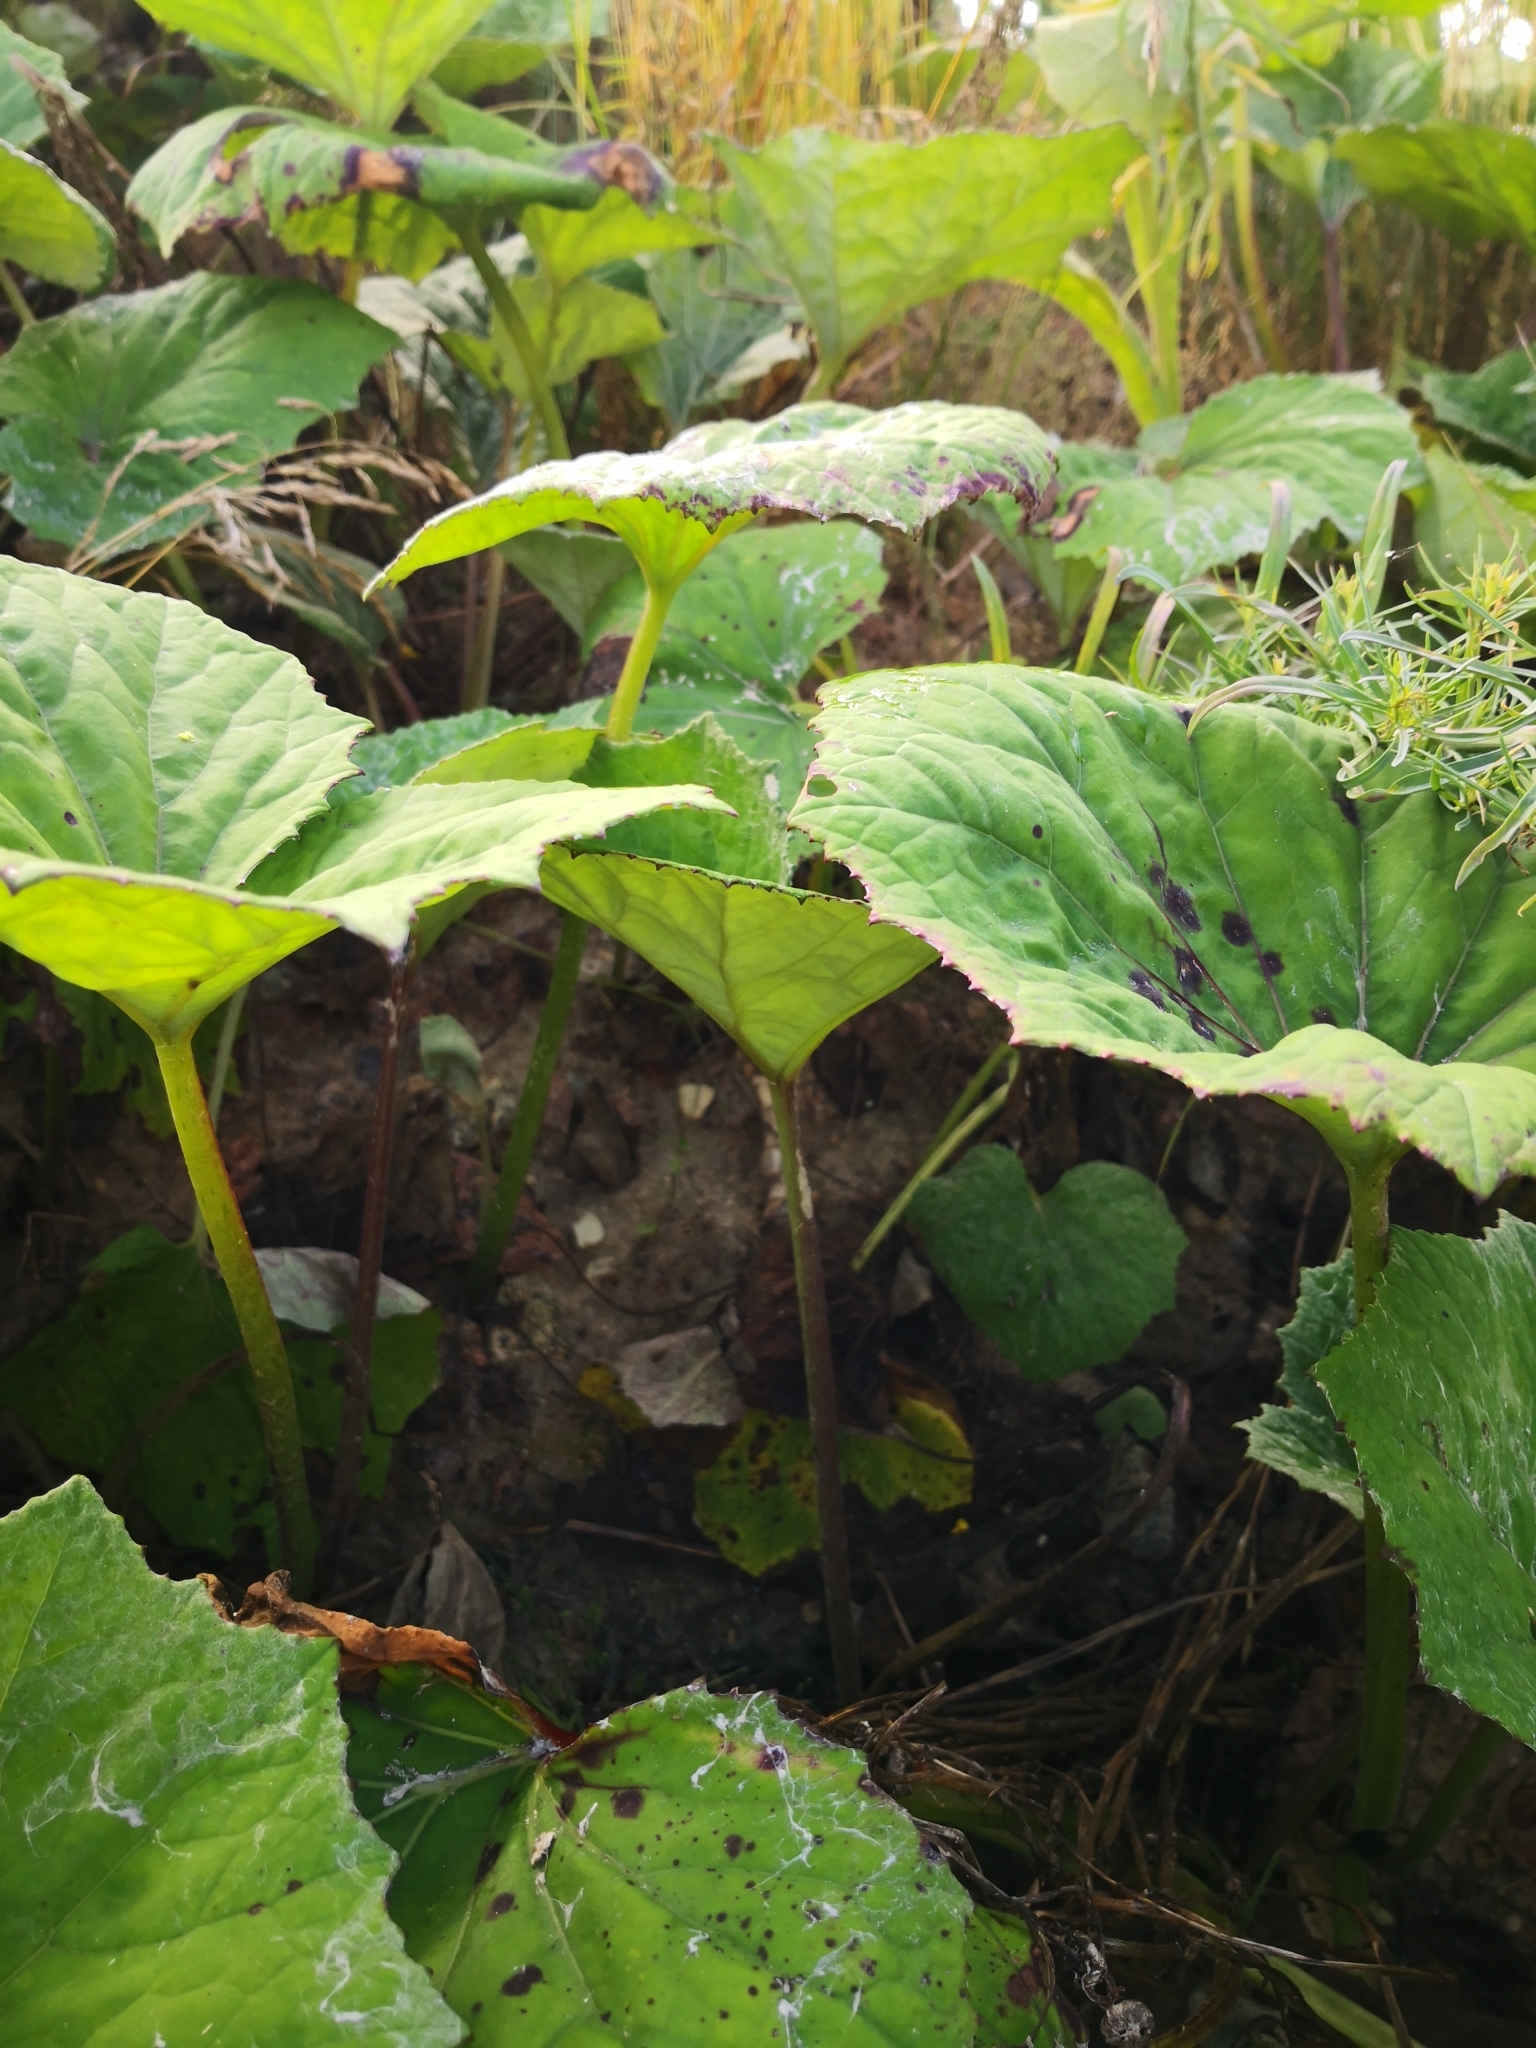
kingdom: Plantae
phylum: Tracheophyta
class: Magnoliopsida
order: Asterales
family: Asteraceae
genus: Tussilago
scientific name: Tussilago farfara
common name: Coltsfoot
